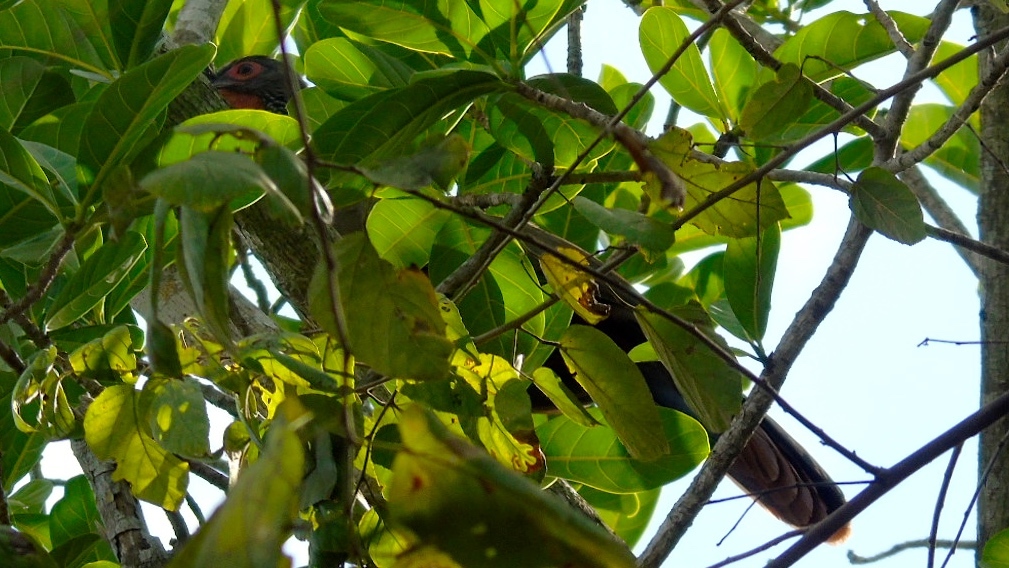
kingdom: Animalia
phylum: Chordata
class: Aves
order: Galliformes
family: Cracidae
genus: Ortalis
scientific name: Ortalis wagleri
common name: Rufous-bellied chachalaca
